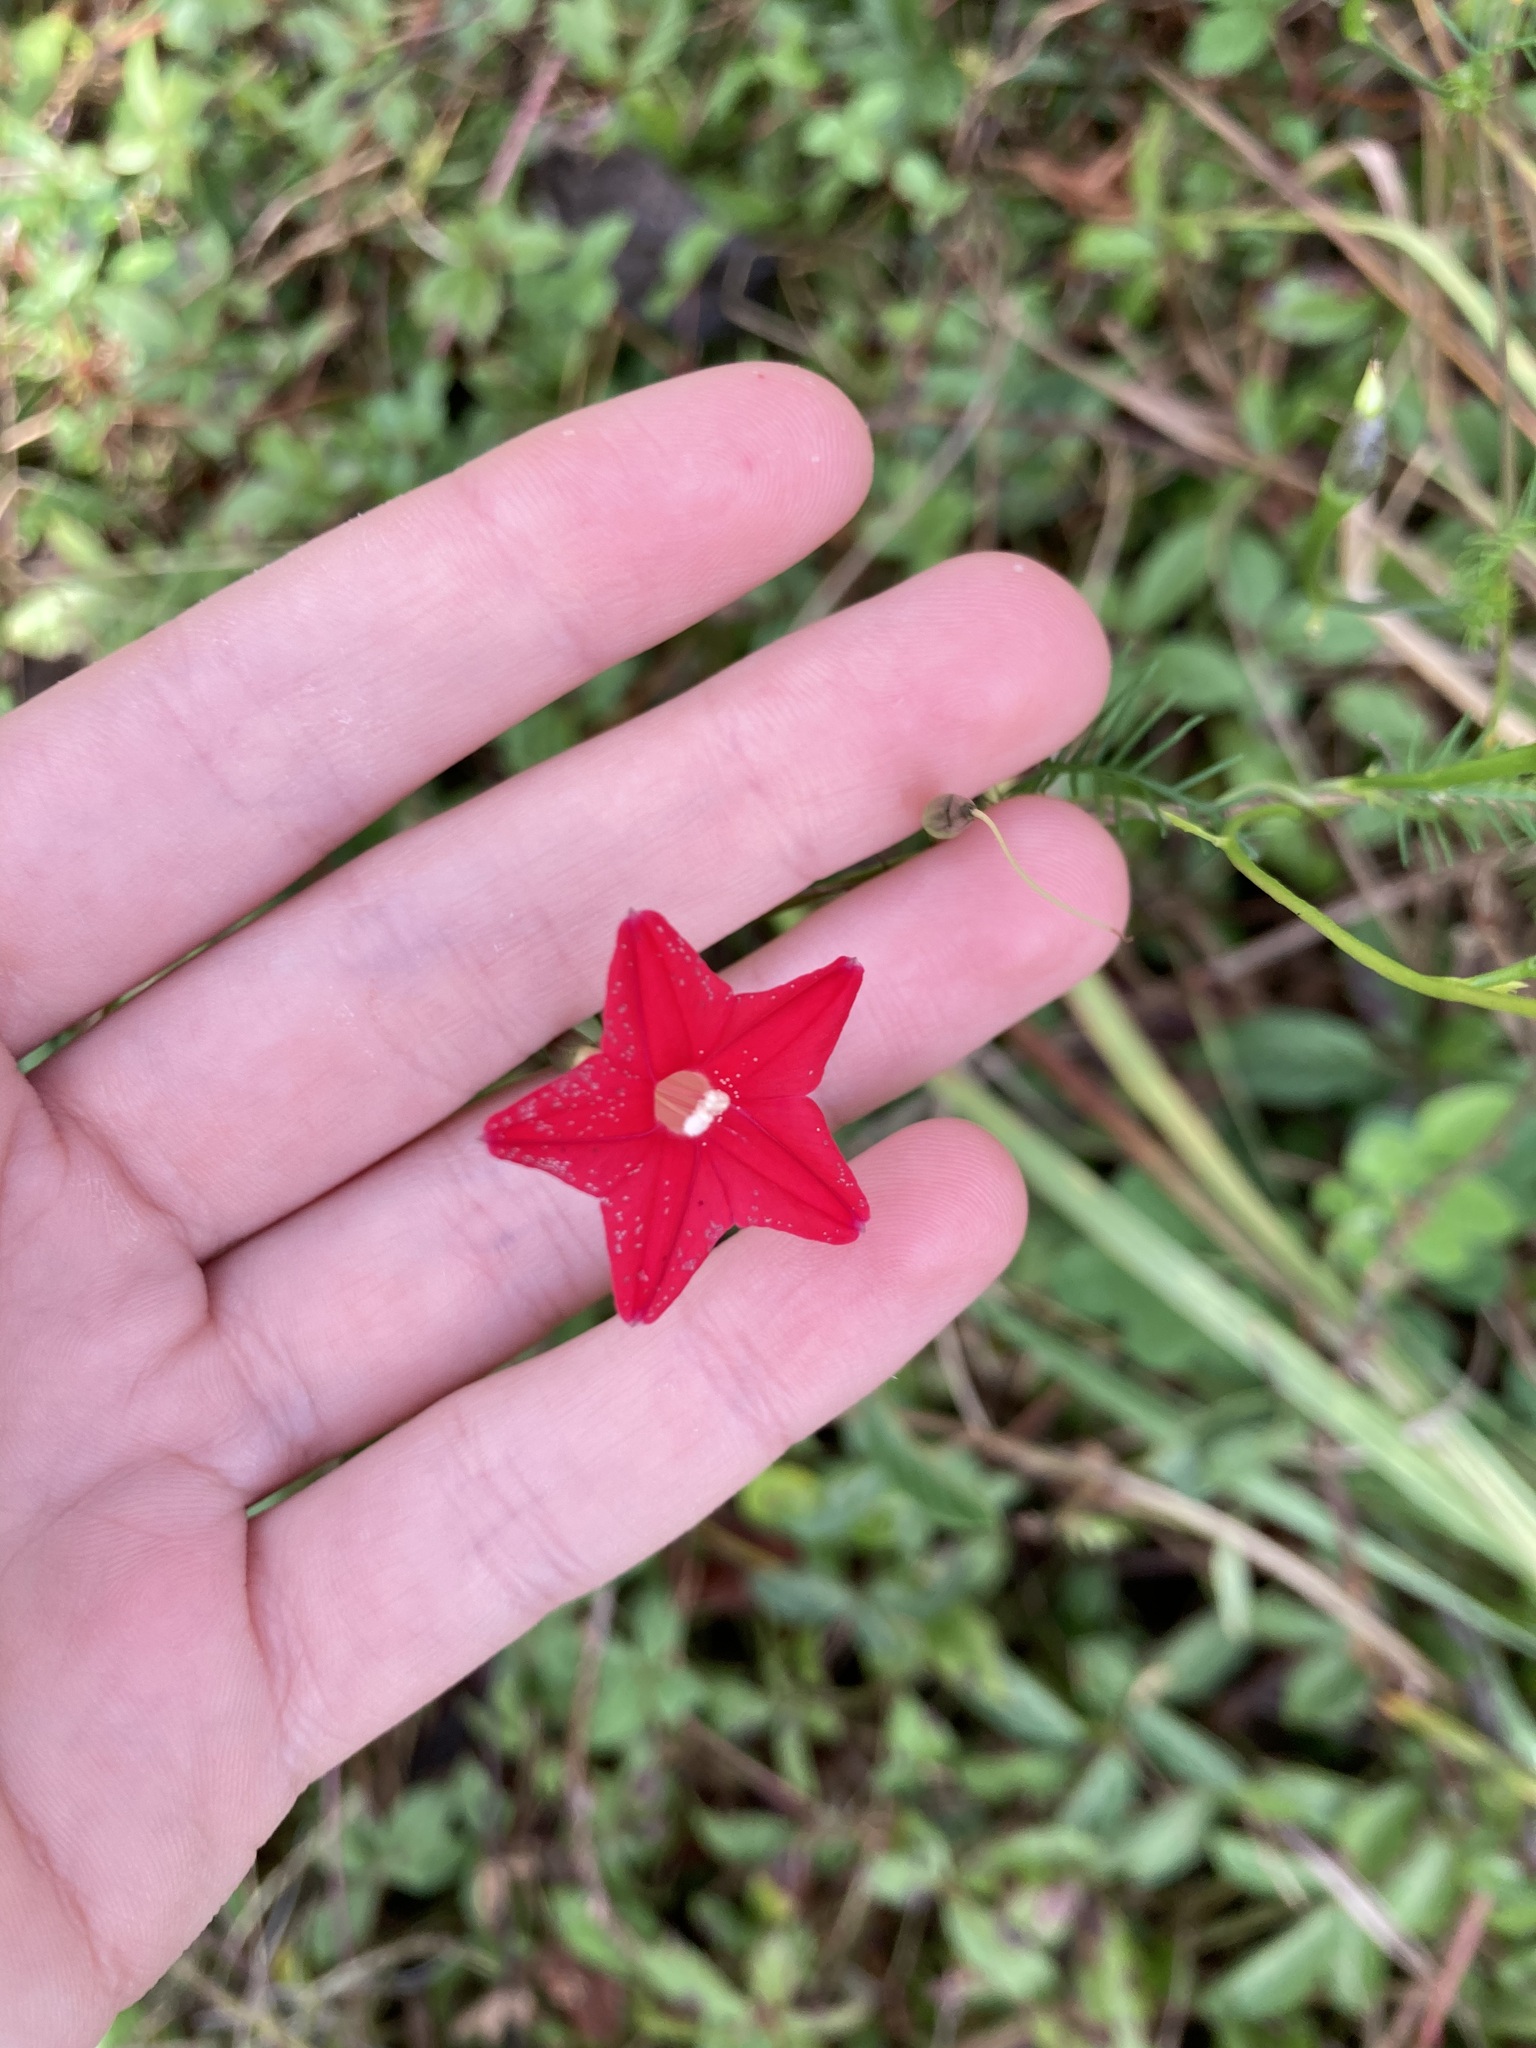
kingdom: Plantae
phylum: Tracheophyta
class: Magnoliopsida
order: Solanales
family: Convolvulaceae
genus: Ipomoea
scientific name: Ipomoea quamoclit
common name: Cypress vine
